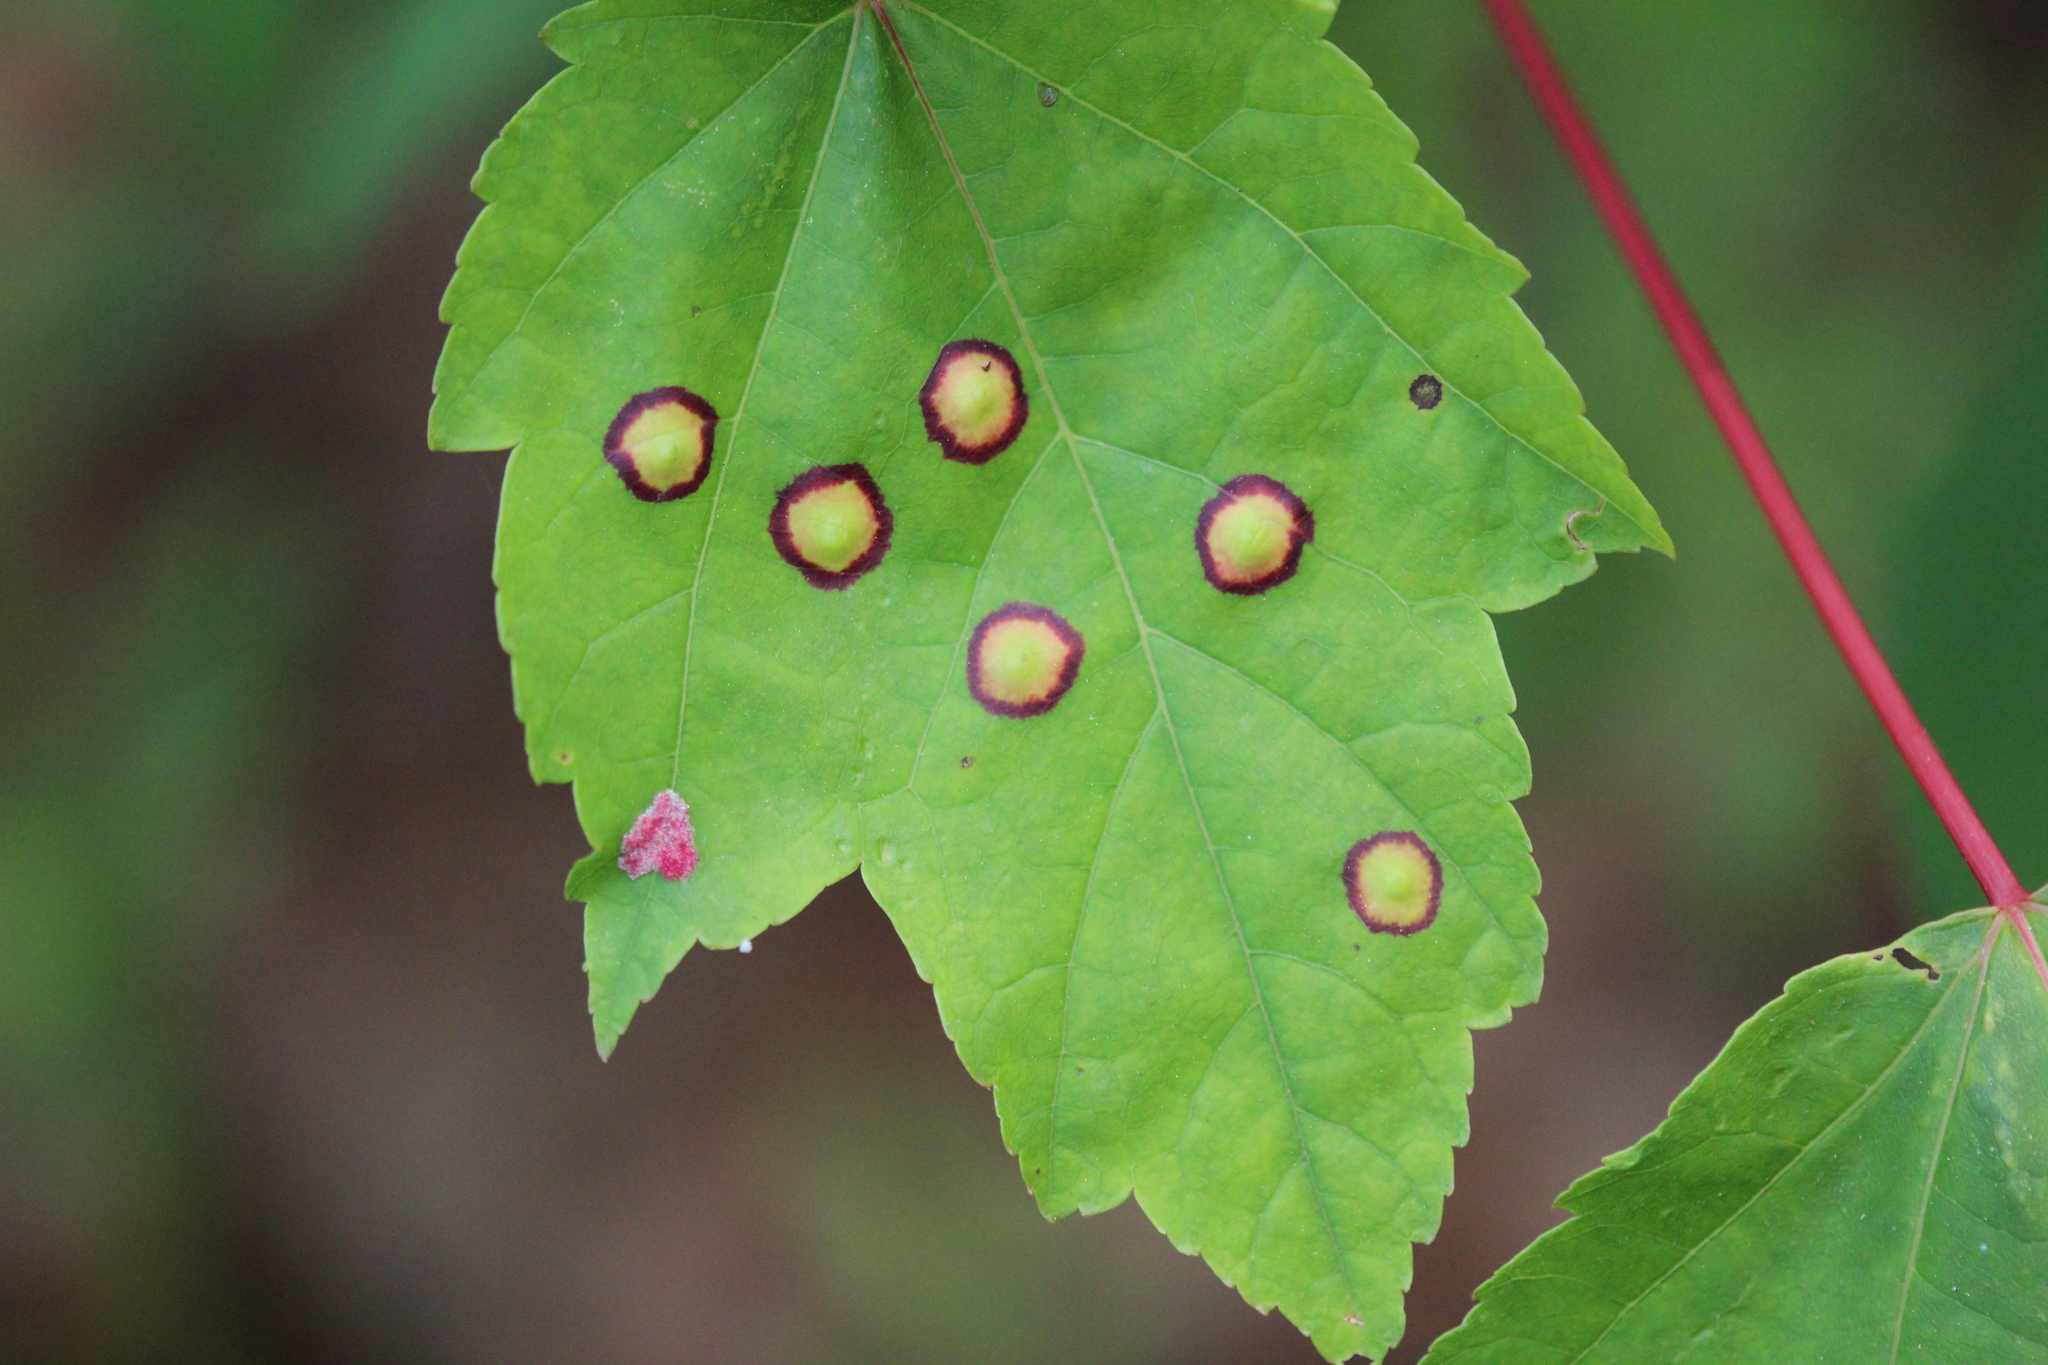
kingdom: Animalia
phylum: Arthropoda
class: Insecta
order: Diptera
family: Cecidomyiidae
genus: Acericecis
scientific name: Acericecis ocellaris
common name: Ocellate gall midge
